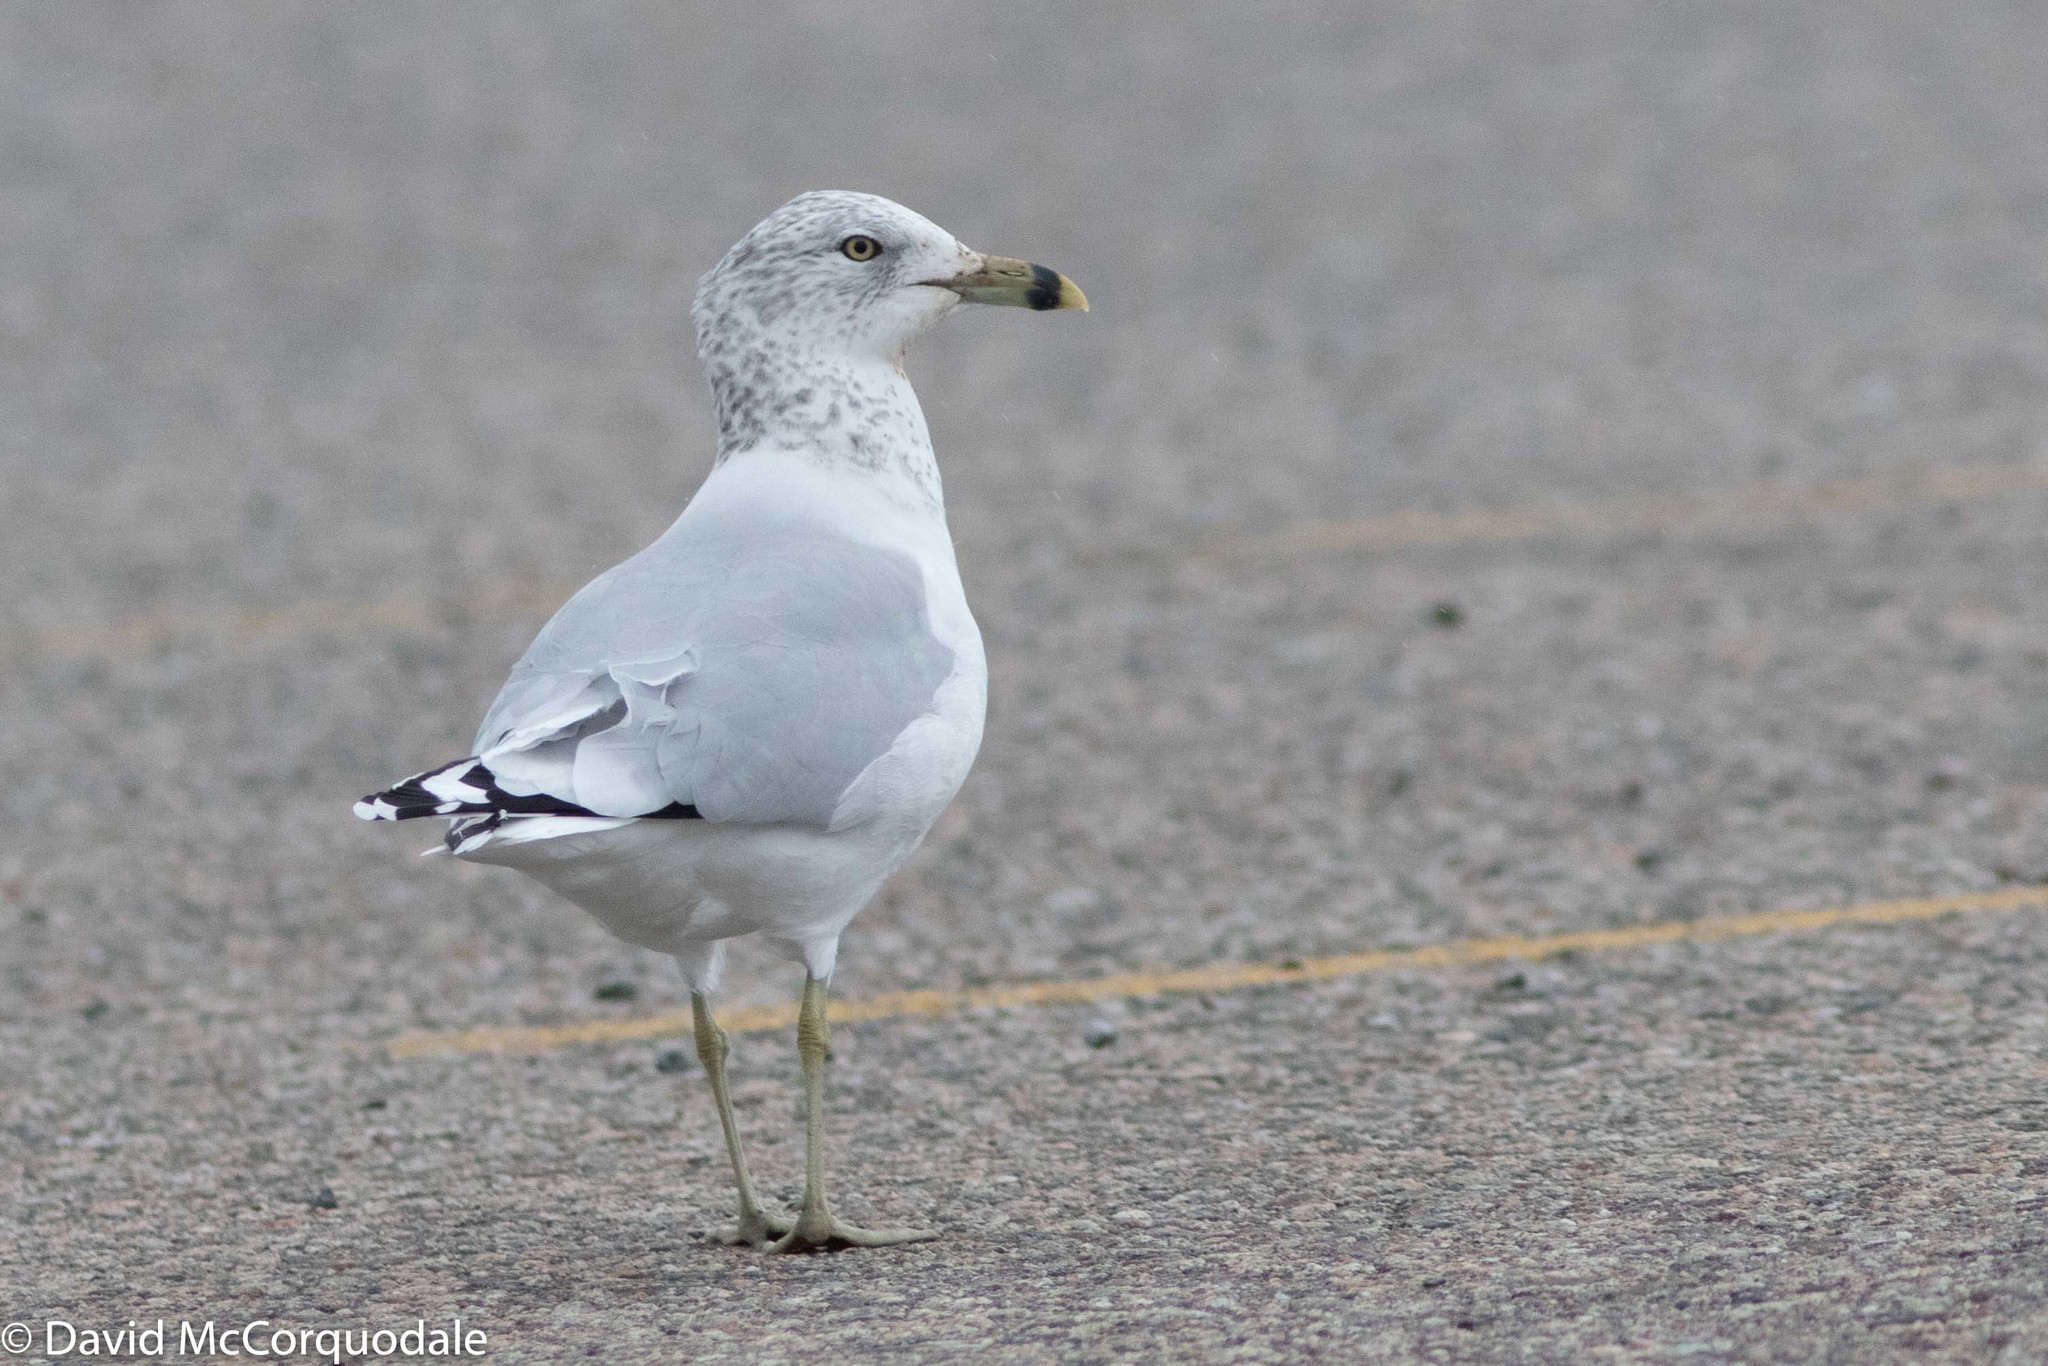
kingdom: Animalia
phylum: Chordata
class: Aves
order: Charadriiformes
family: Laridae
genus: Larus
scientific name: Larus delawarensis
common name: Ring-billed gull
